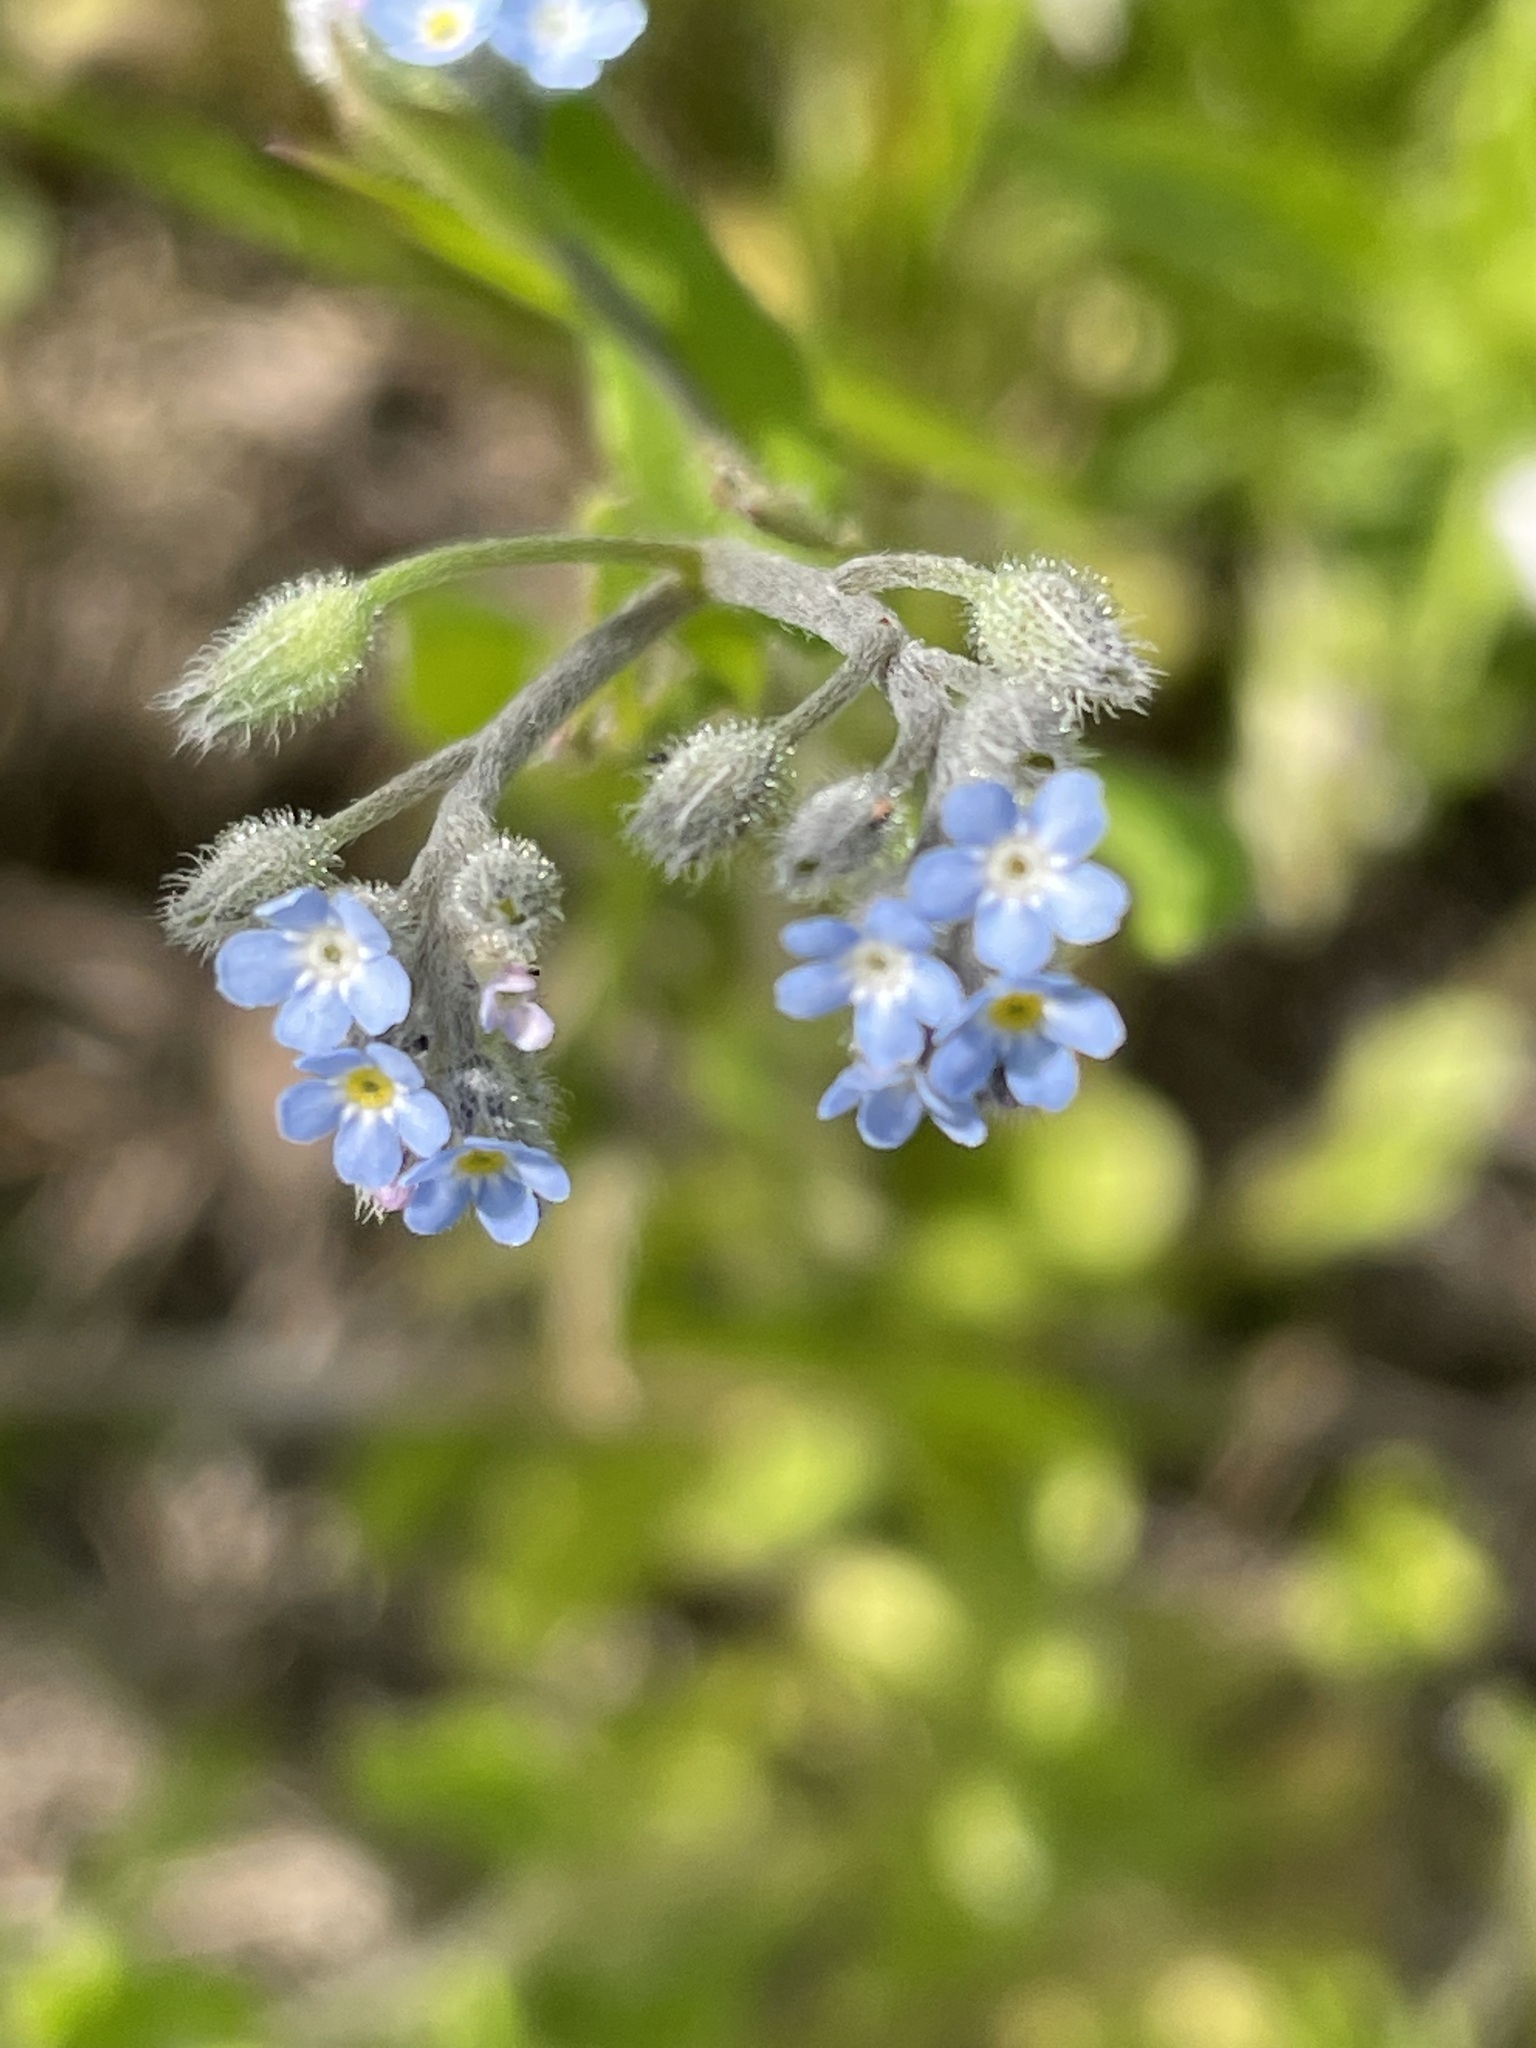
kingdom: Plantae
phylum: Tracheophyta
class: Magnoliopsida
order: Boraginales
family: Boraginaceae
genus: Myosotis
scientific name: Myosotis arvensis
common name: Field forget-me-not
